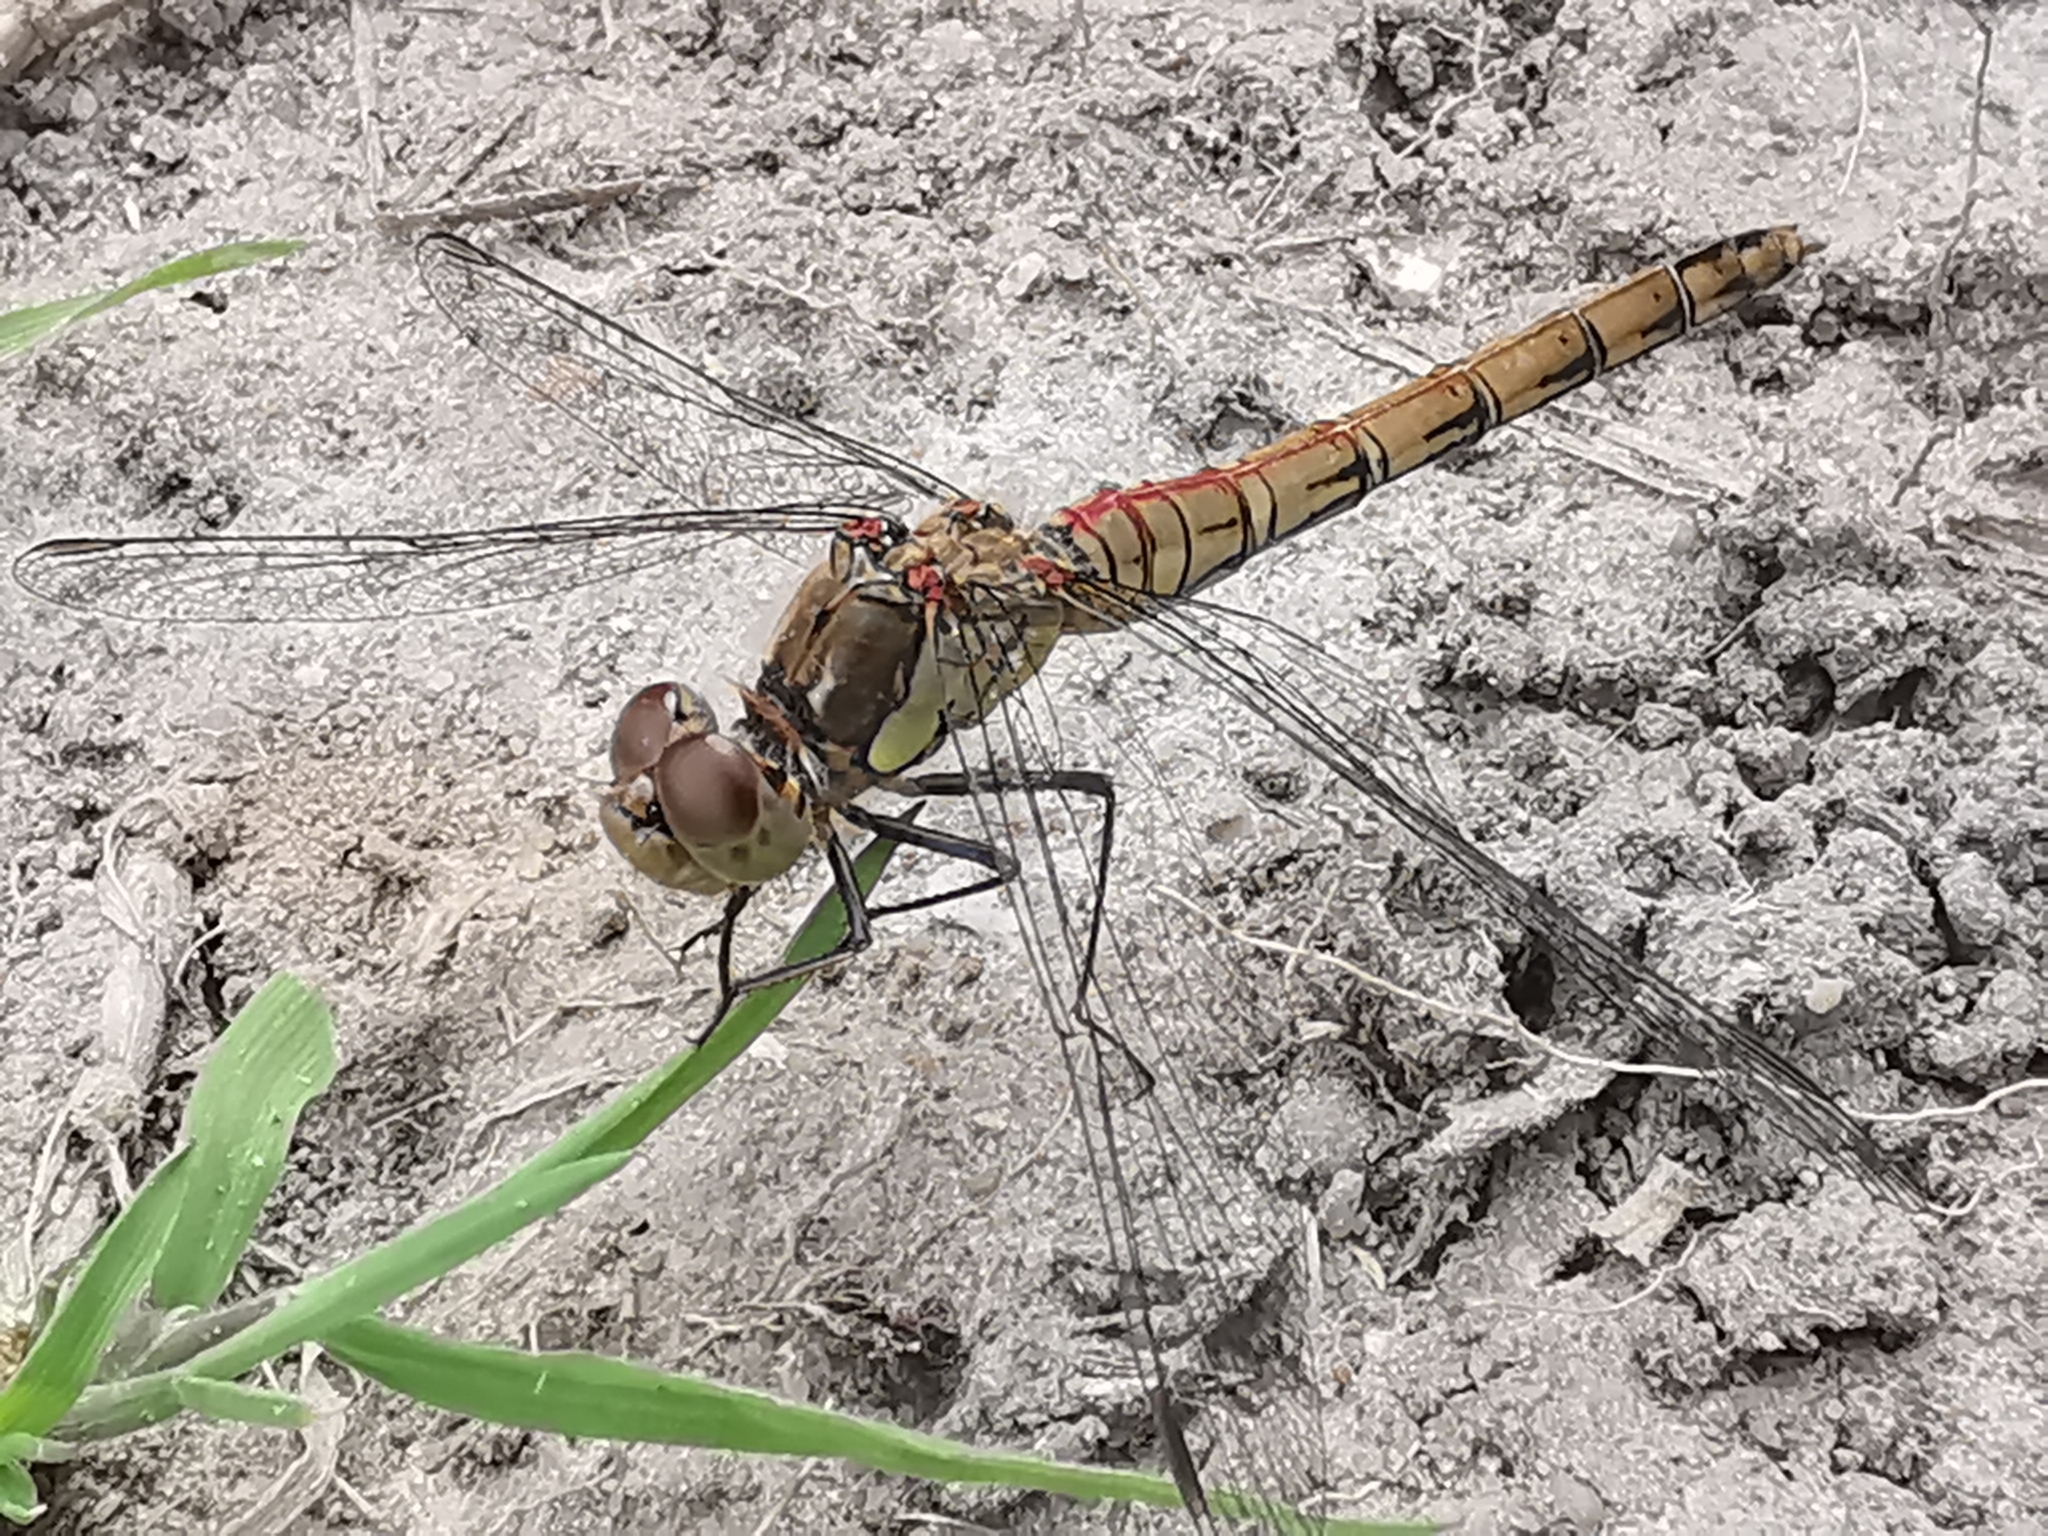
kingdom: Animalia
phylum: Arthropoda
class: Insecta
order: Odonata
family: Libellulidae
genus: Sympetrum
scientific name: Sympetrum striolatum
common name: Common darter
